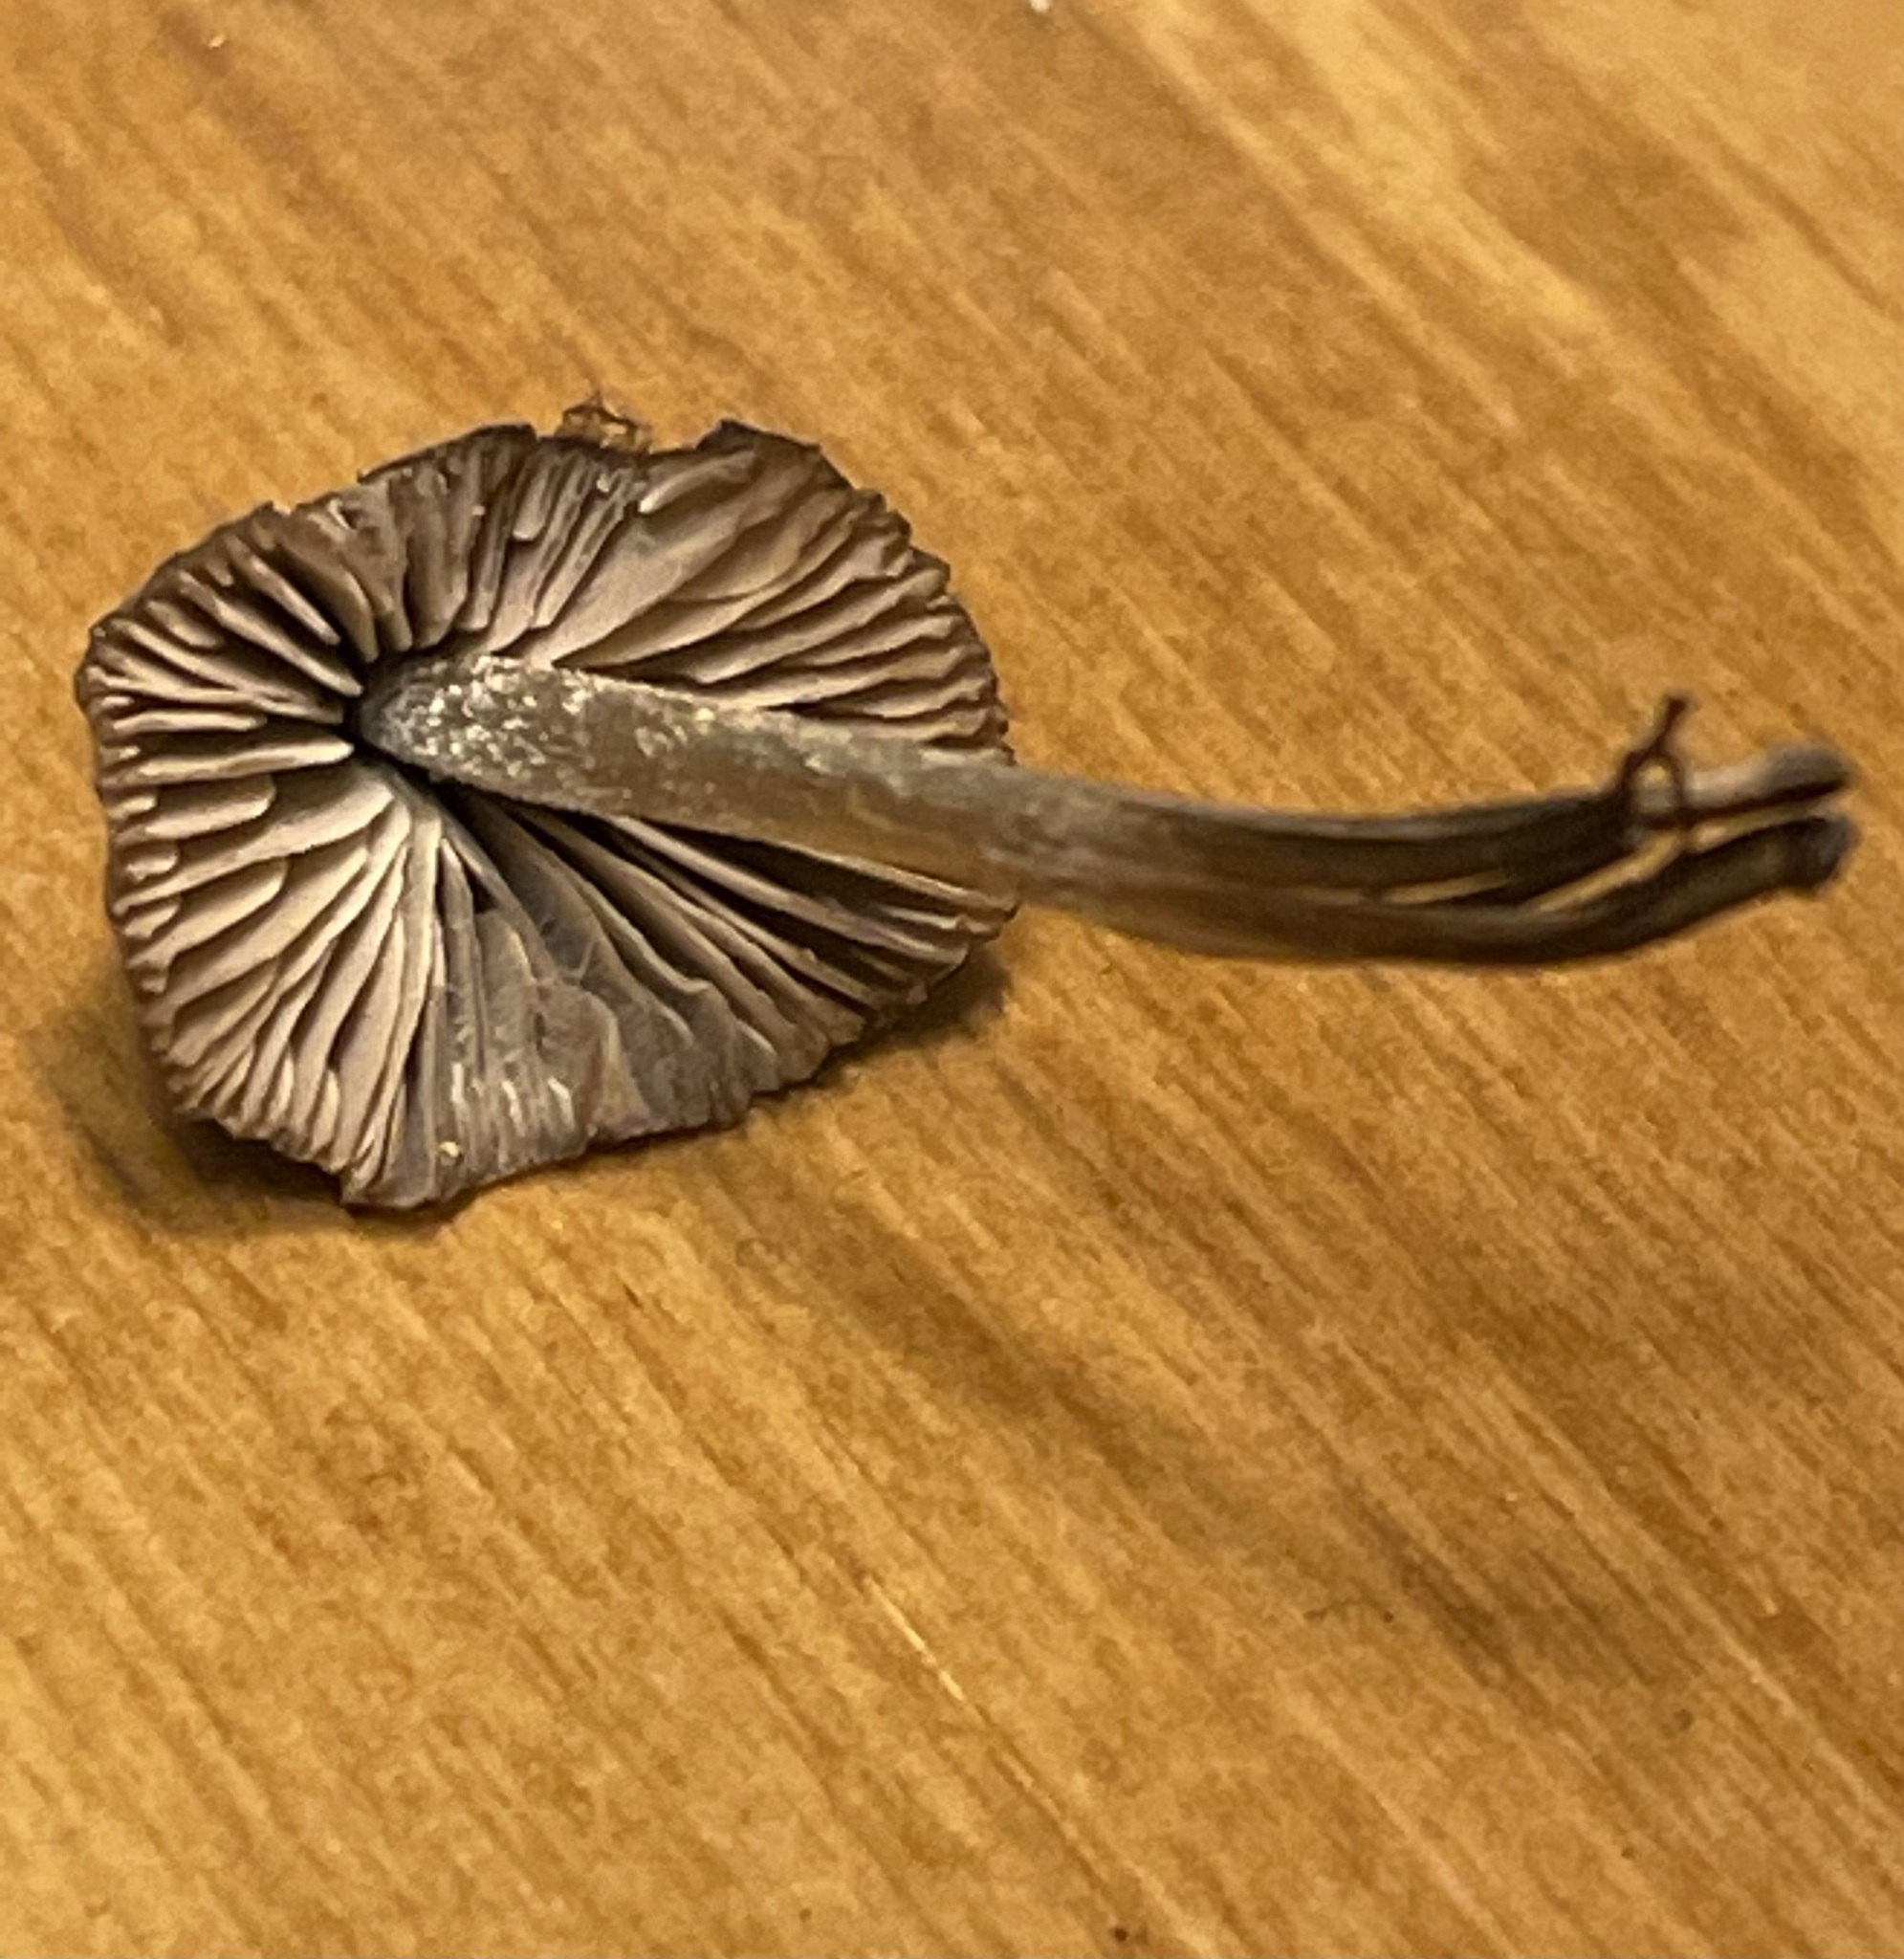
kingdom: Fungi
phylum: Basidiomycota
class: Agaricomycetes
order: Agaricales
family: Entolomataceae
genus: Entoloma
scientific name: Entoloma flavoviride
